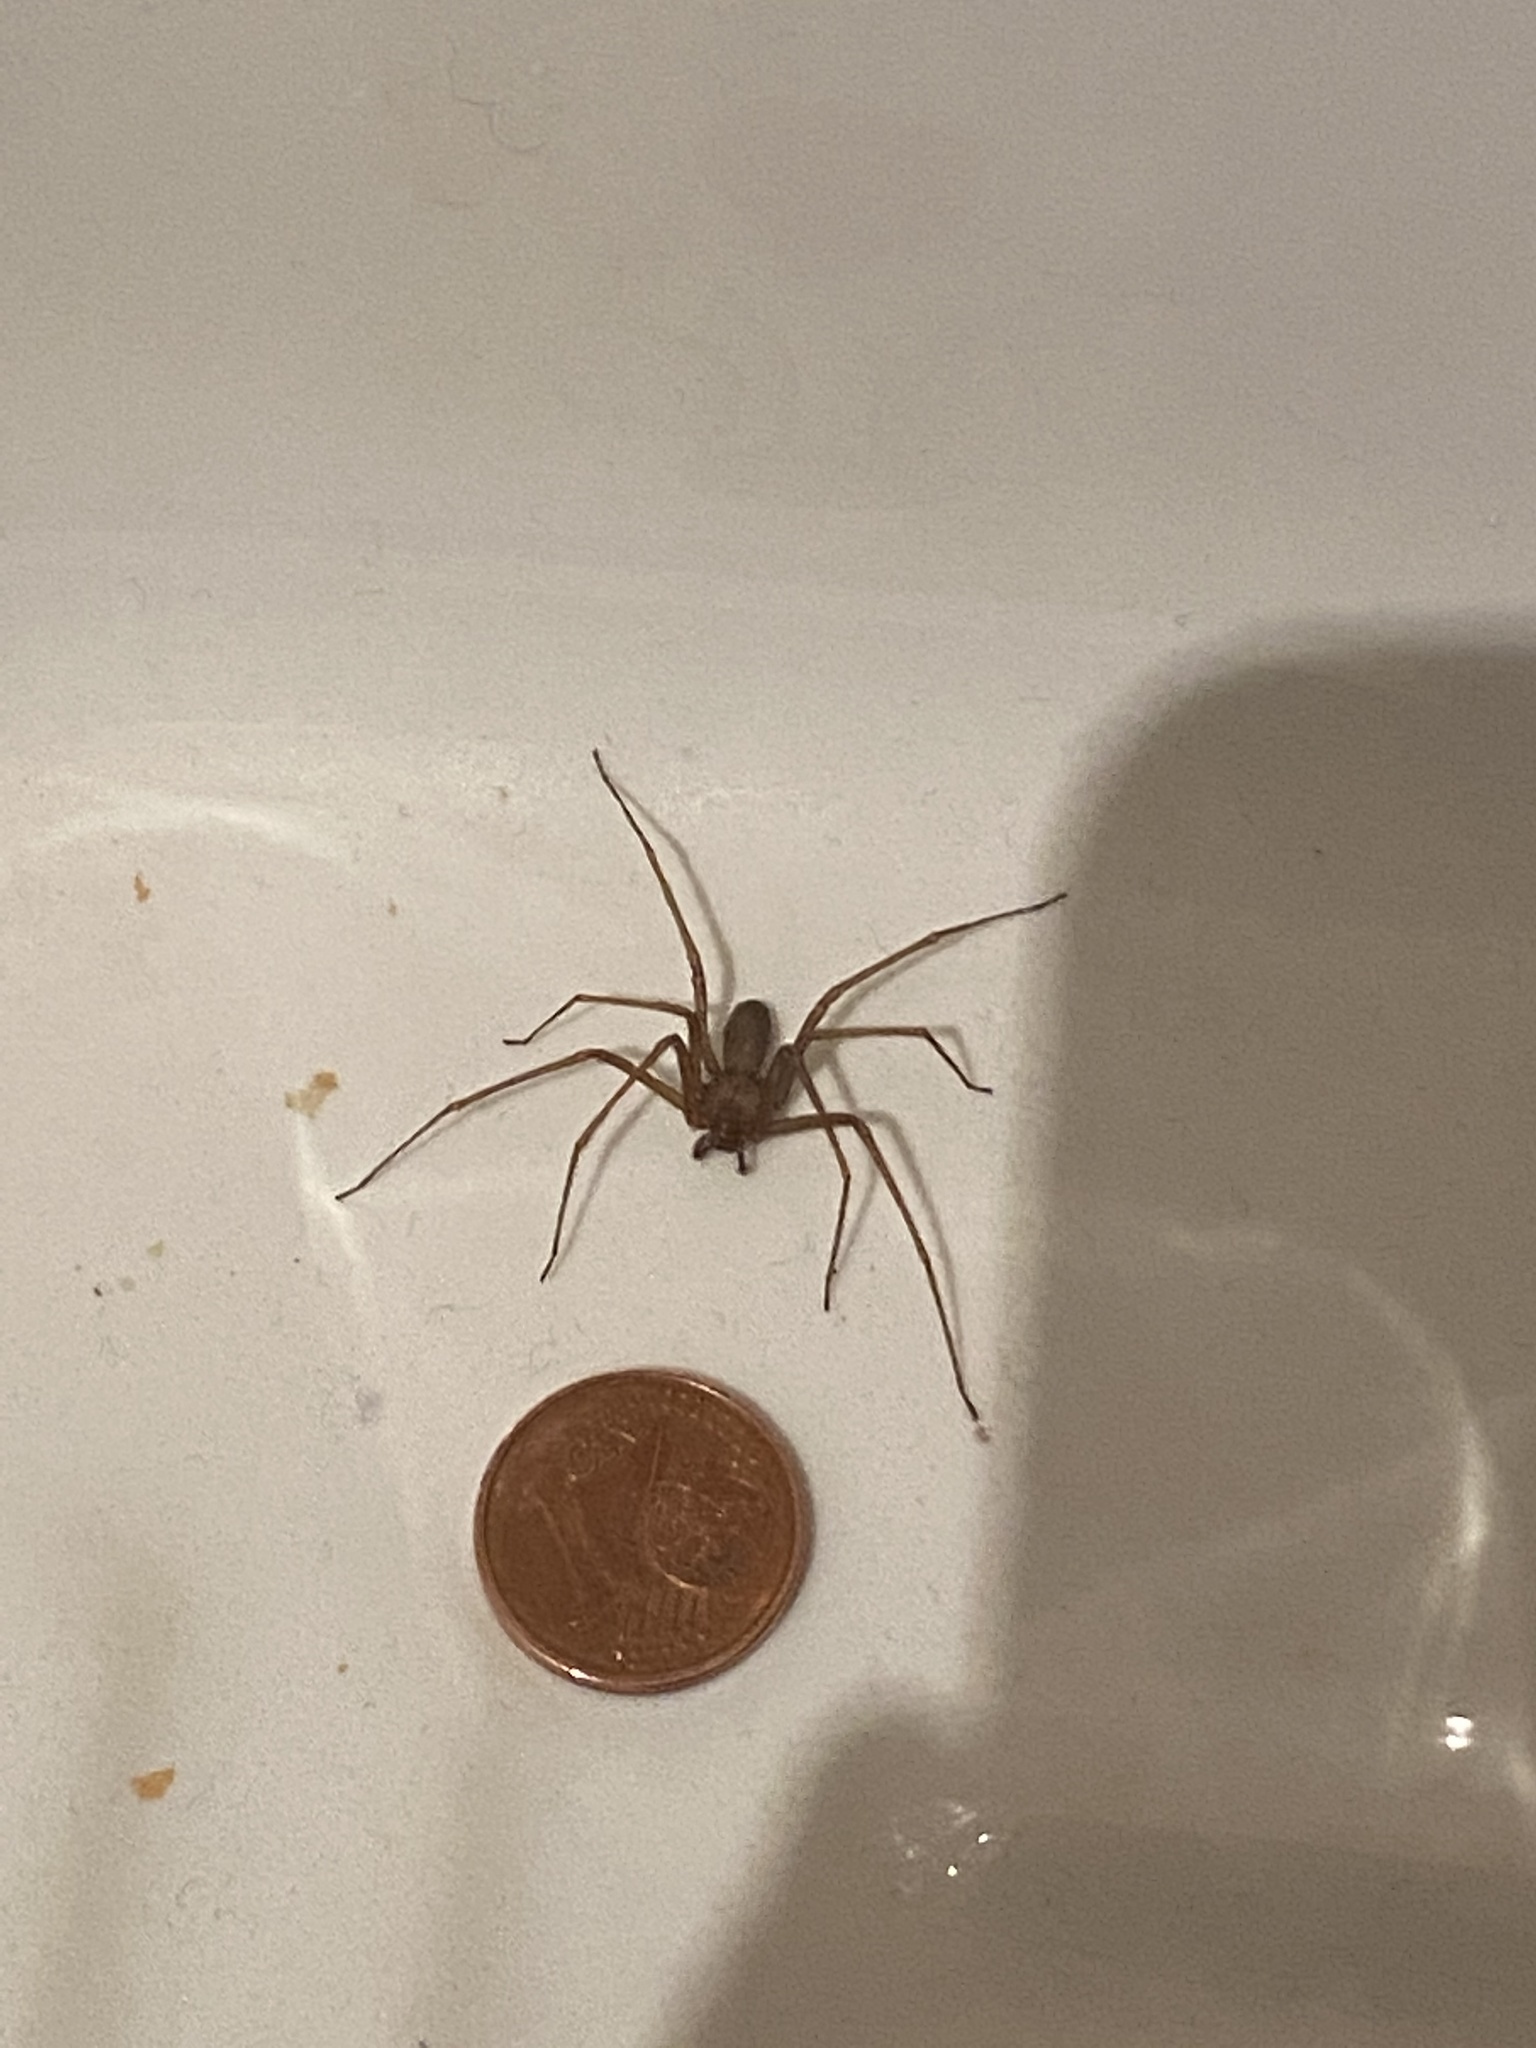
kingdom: Animalia
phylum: Arthropoda
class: Arachnida
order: Araneae
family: Sicariidae
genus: Loxosceles
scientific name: Loxosceles rufescens
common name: Mediterranean recluse spider
